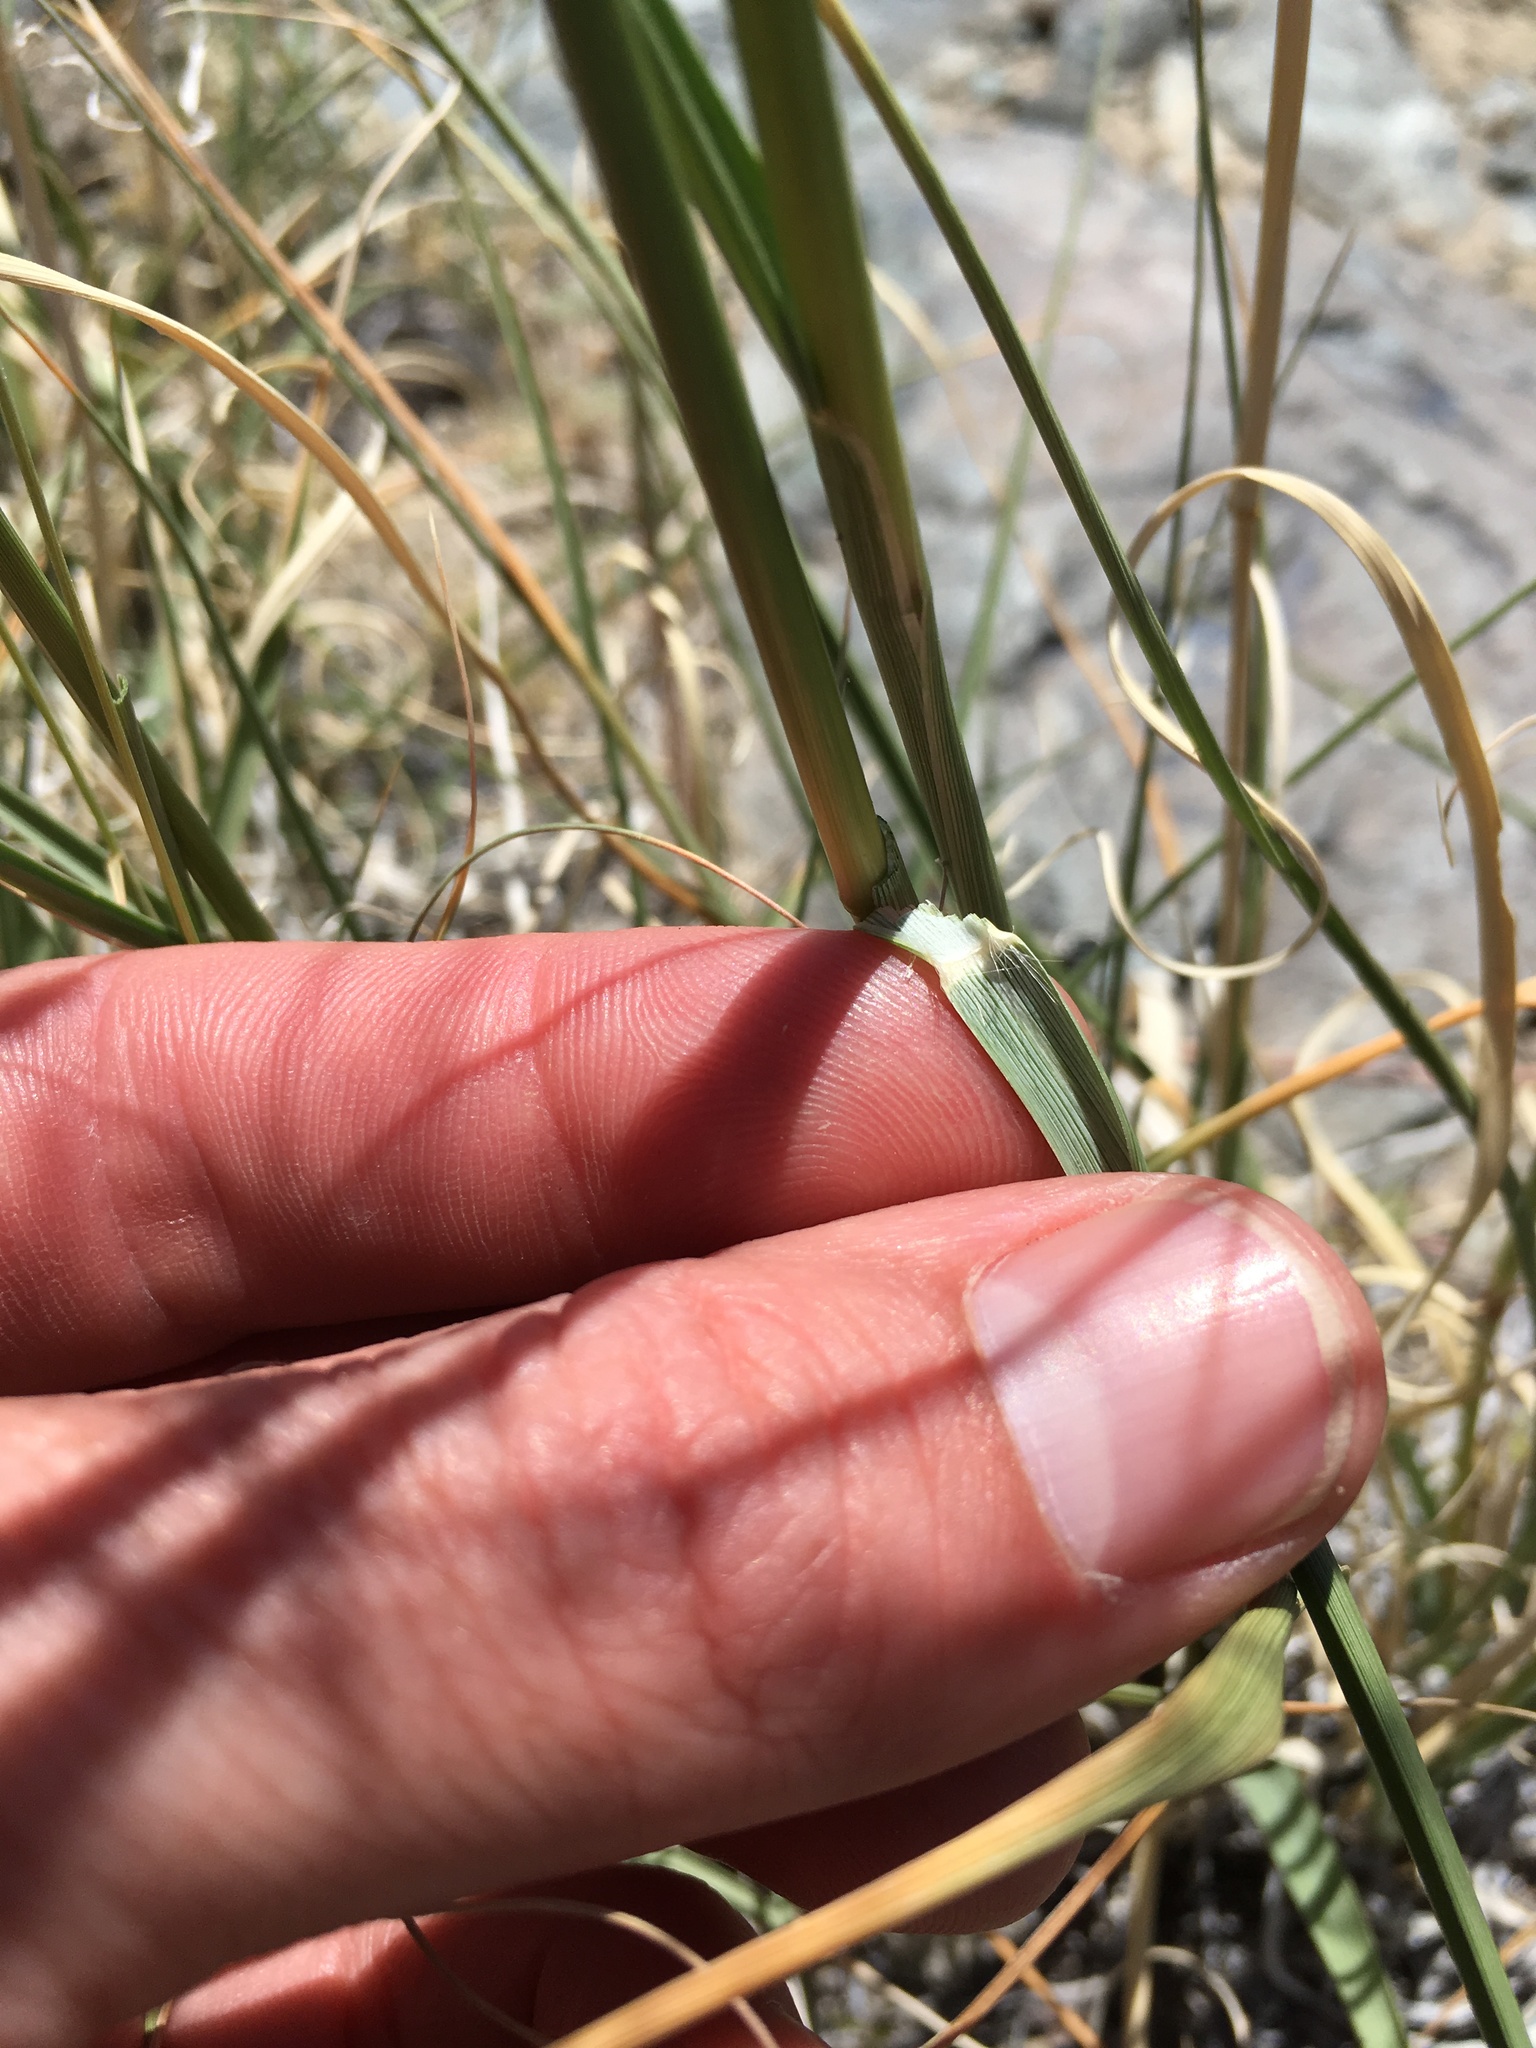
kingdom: Plantae
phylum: Tracheophyta
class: Liliopsida
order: Poales
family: Poaceae
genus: Sporobolus
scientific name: Sporobolus airoides
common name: Alkali sacaton
